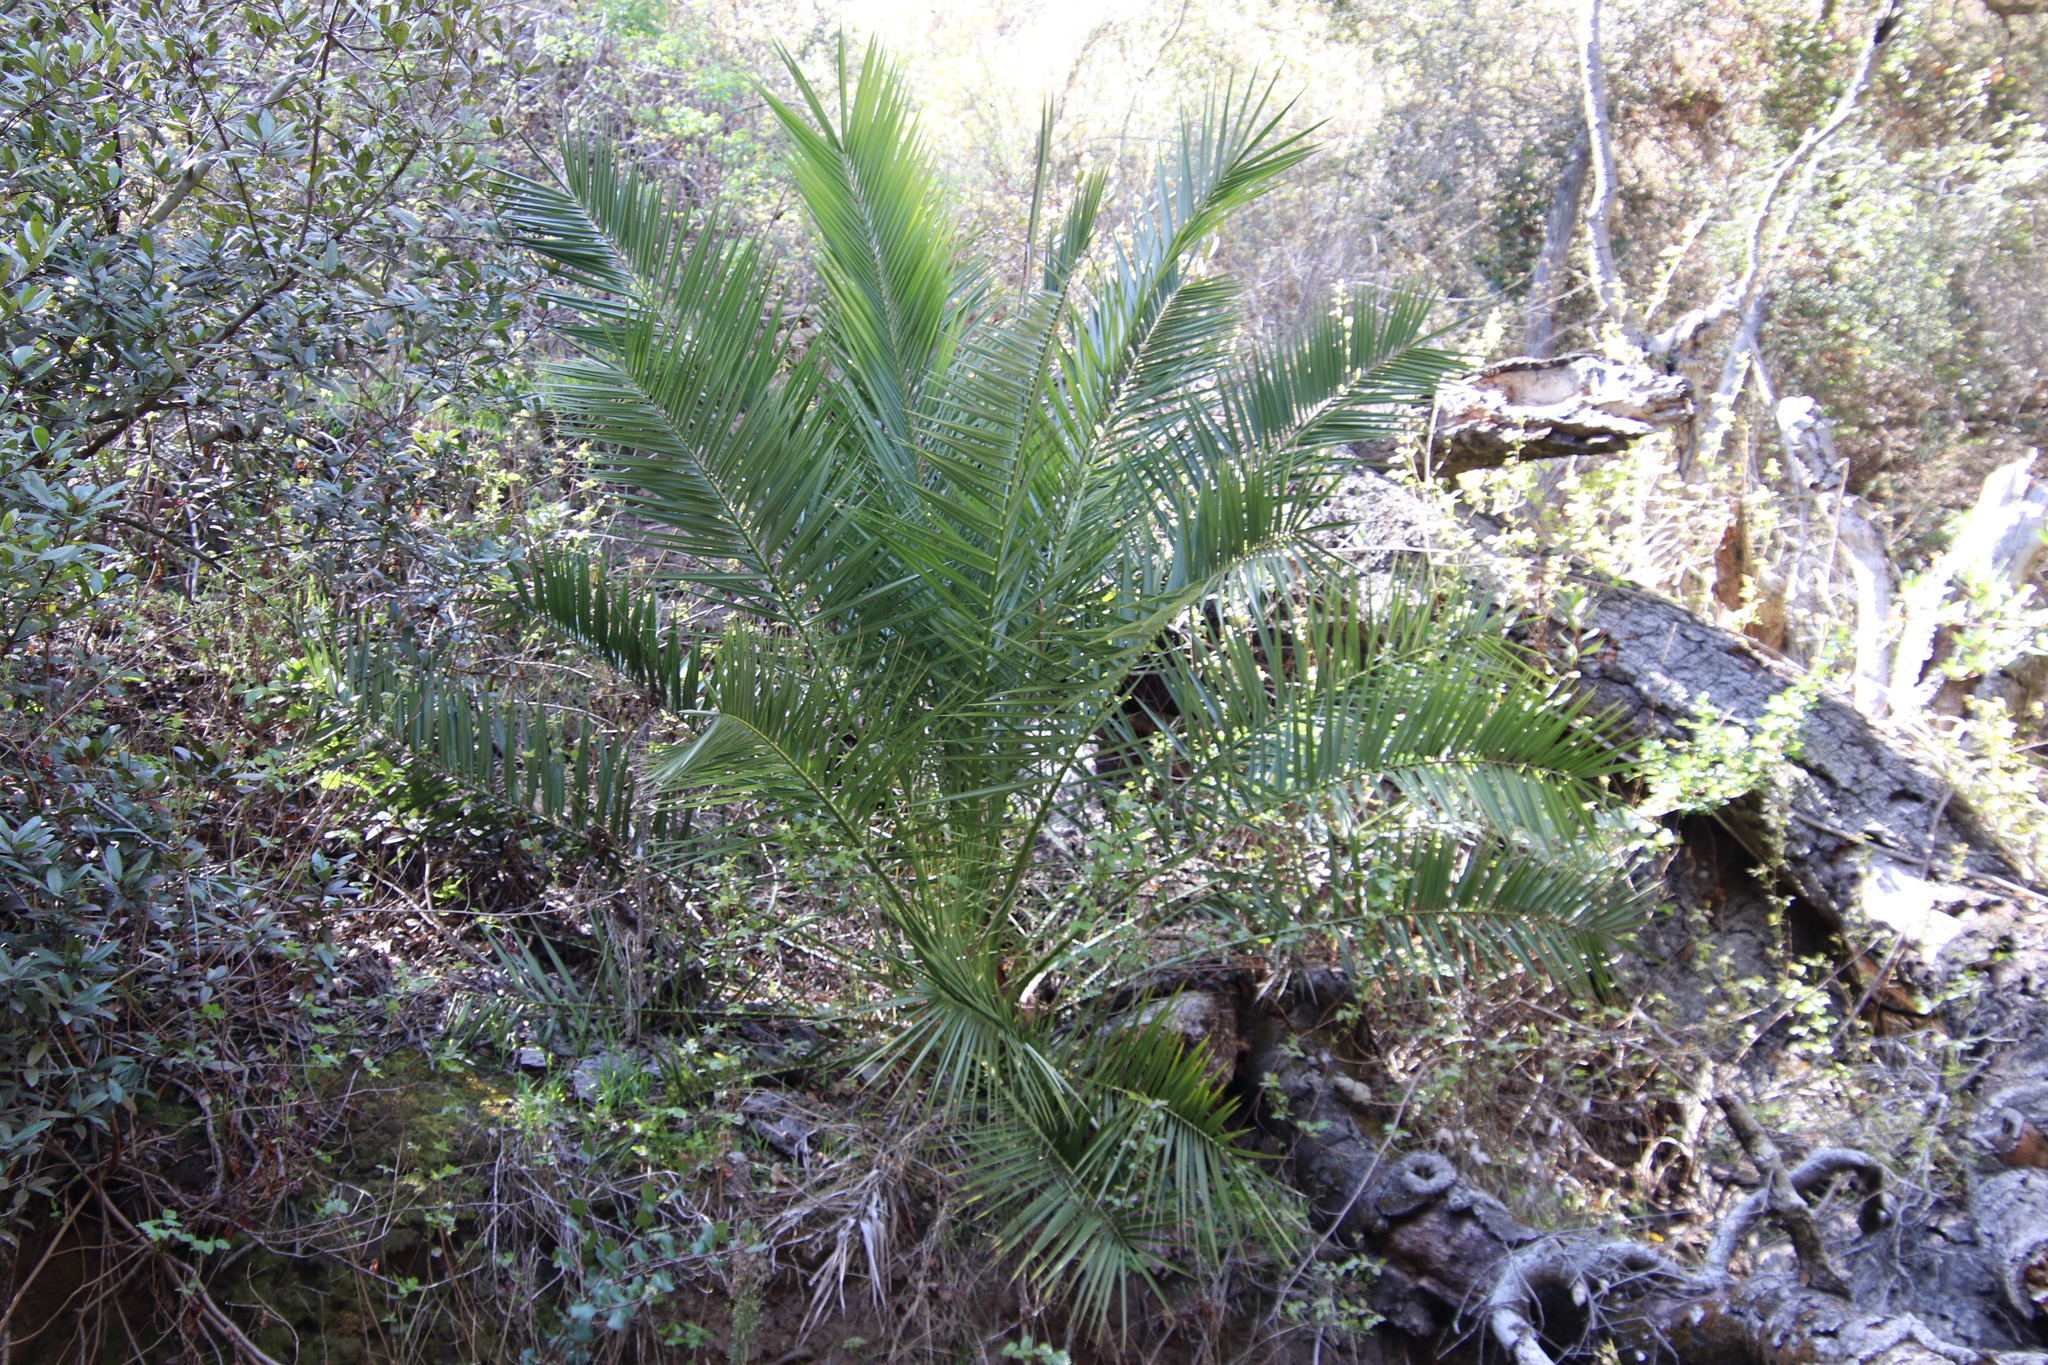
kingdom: Plantae
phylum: Tracheophyta
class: Liliopsida
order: Arecales
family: Arecaceae
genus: Phoenix
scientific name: Phoenix canariensis
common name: Canary island date palm
